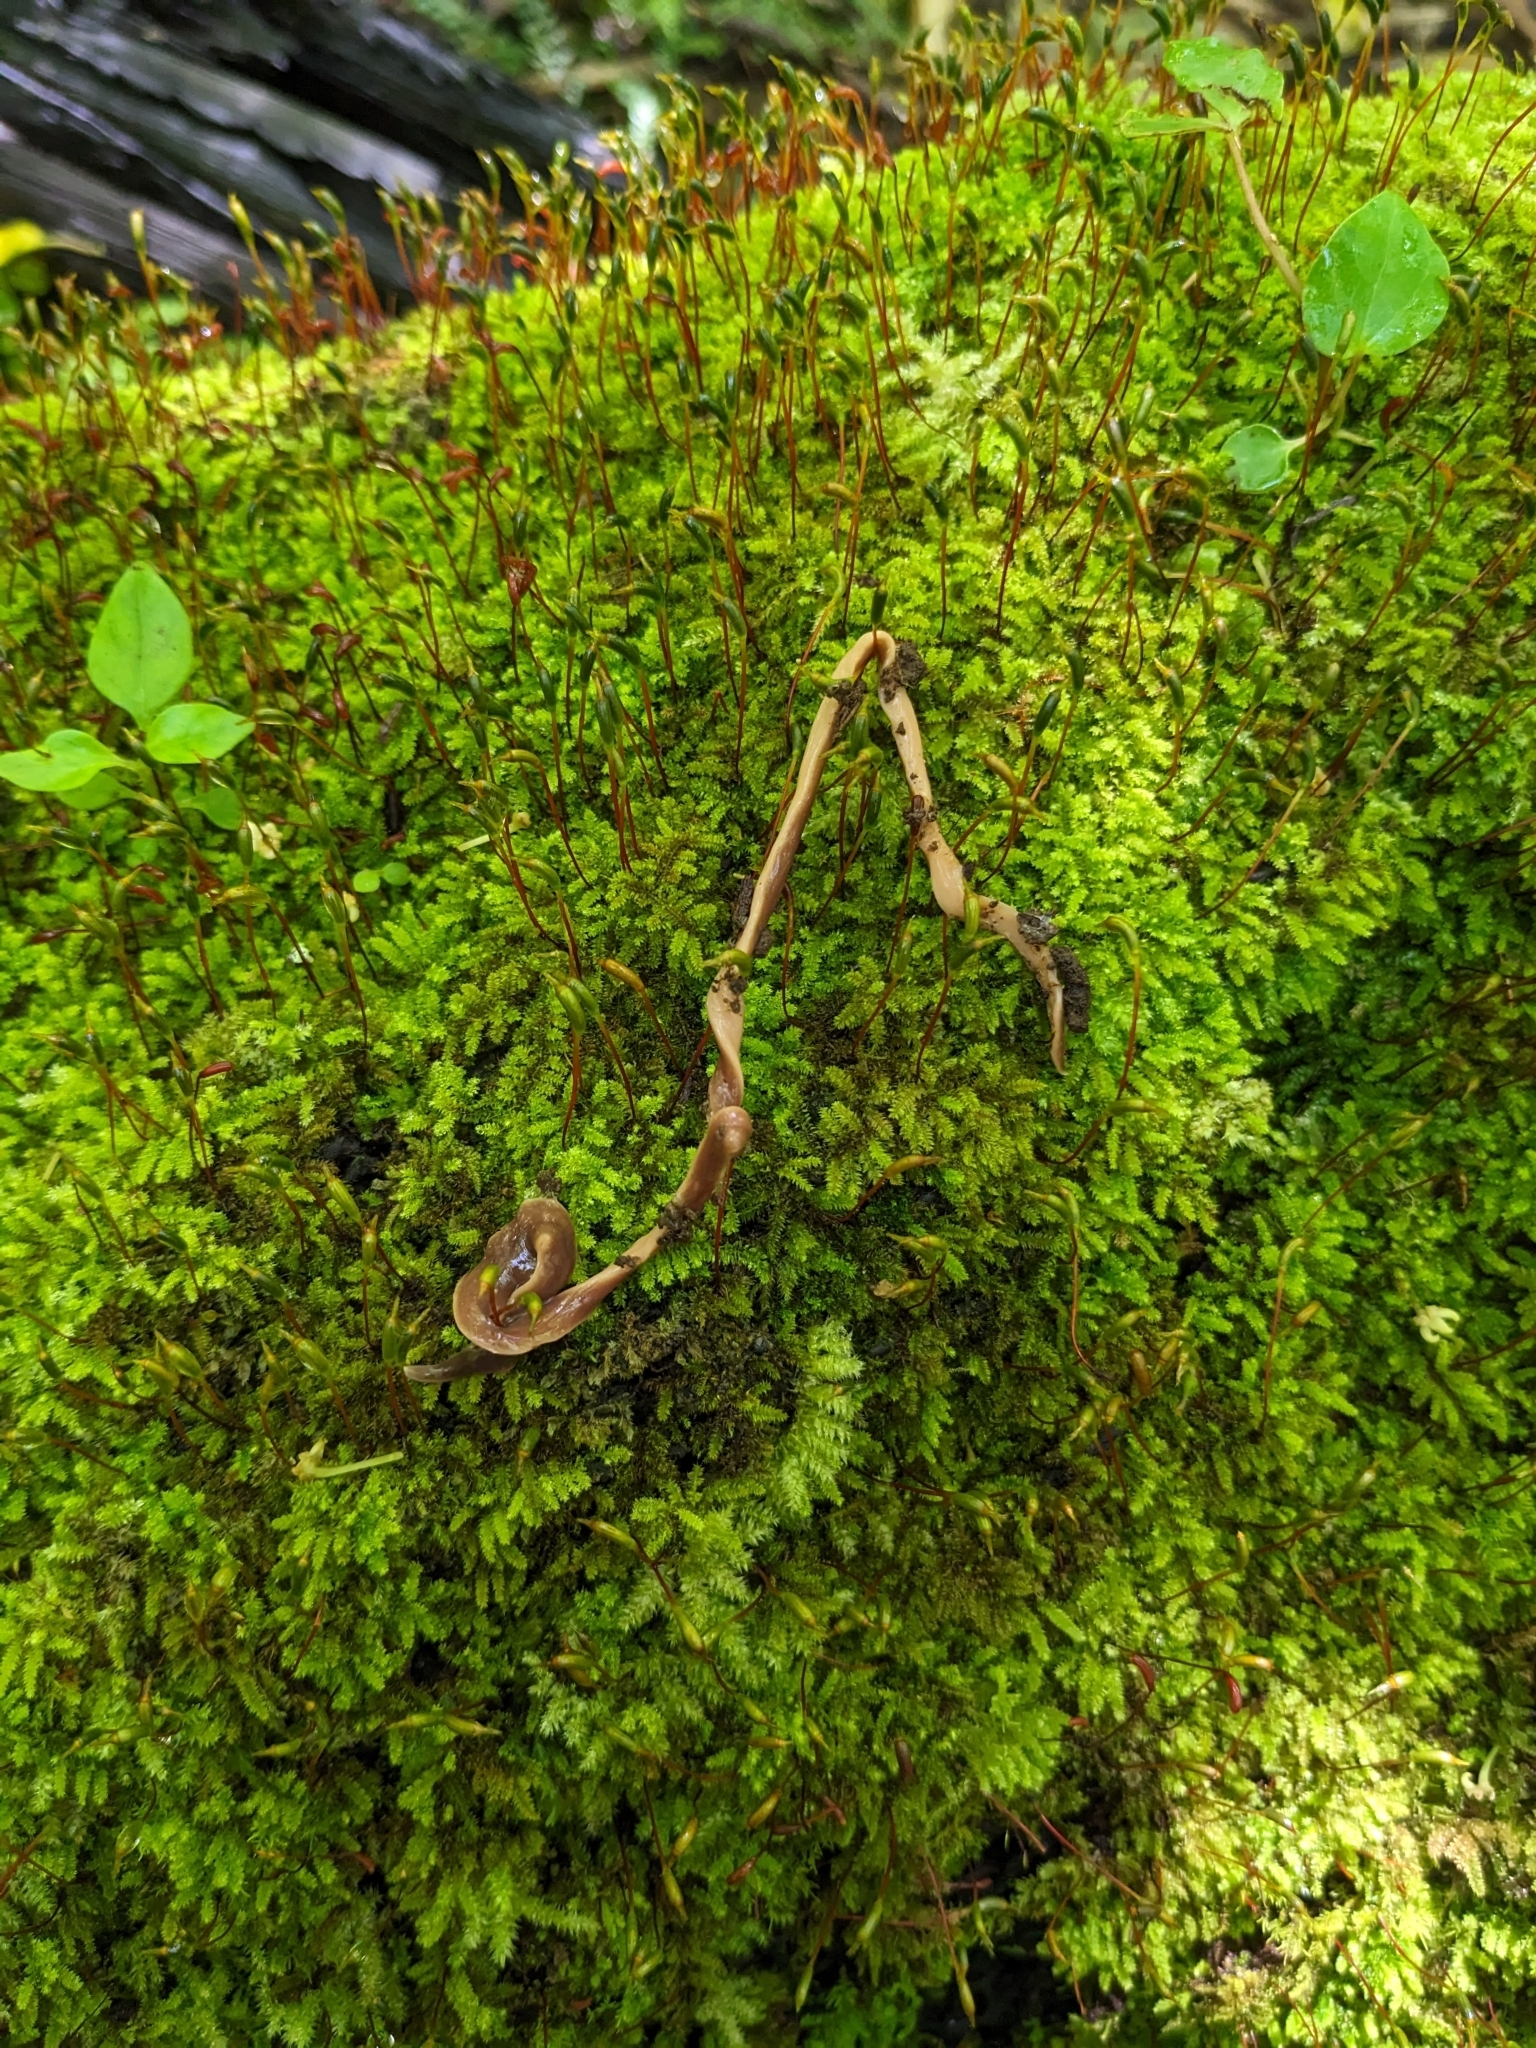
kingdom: Animalia
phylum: Platyhelminthes
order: Tricladida
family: Geoplanidae
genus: Arthurdendyus
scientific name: Arthurdendyus australis
